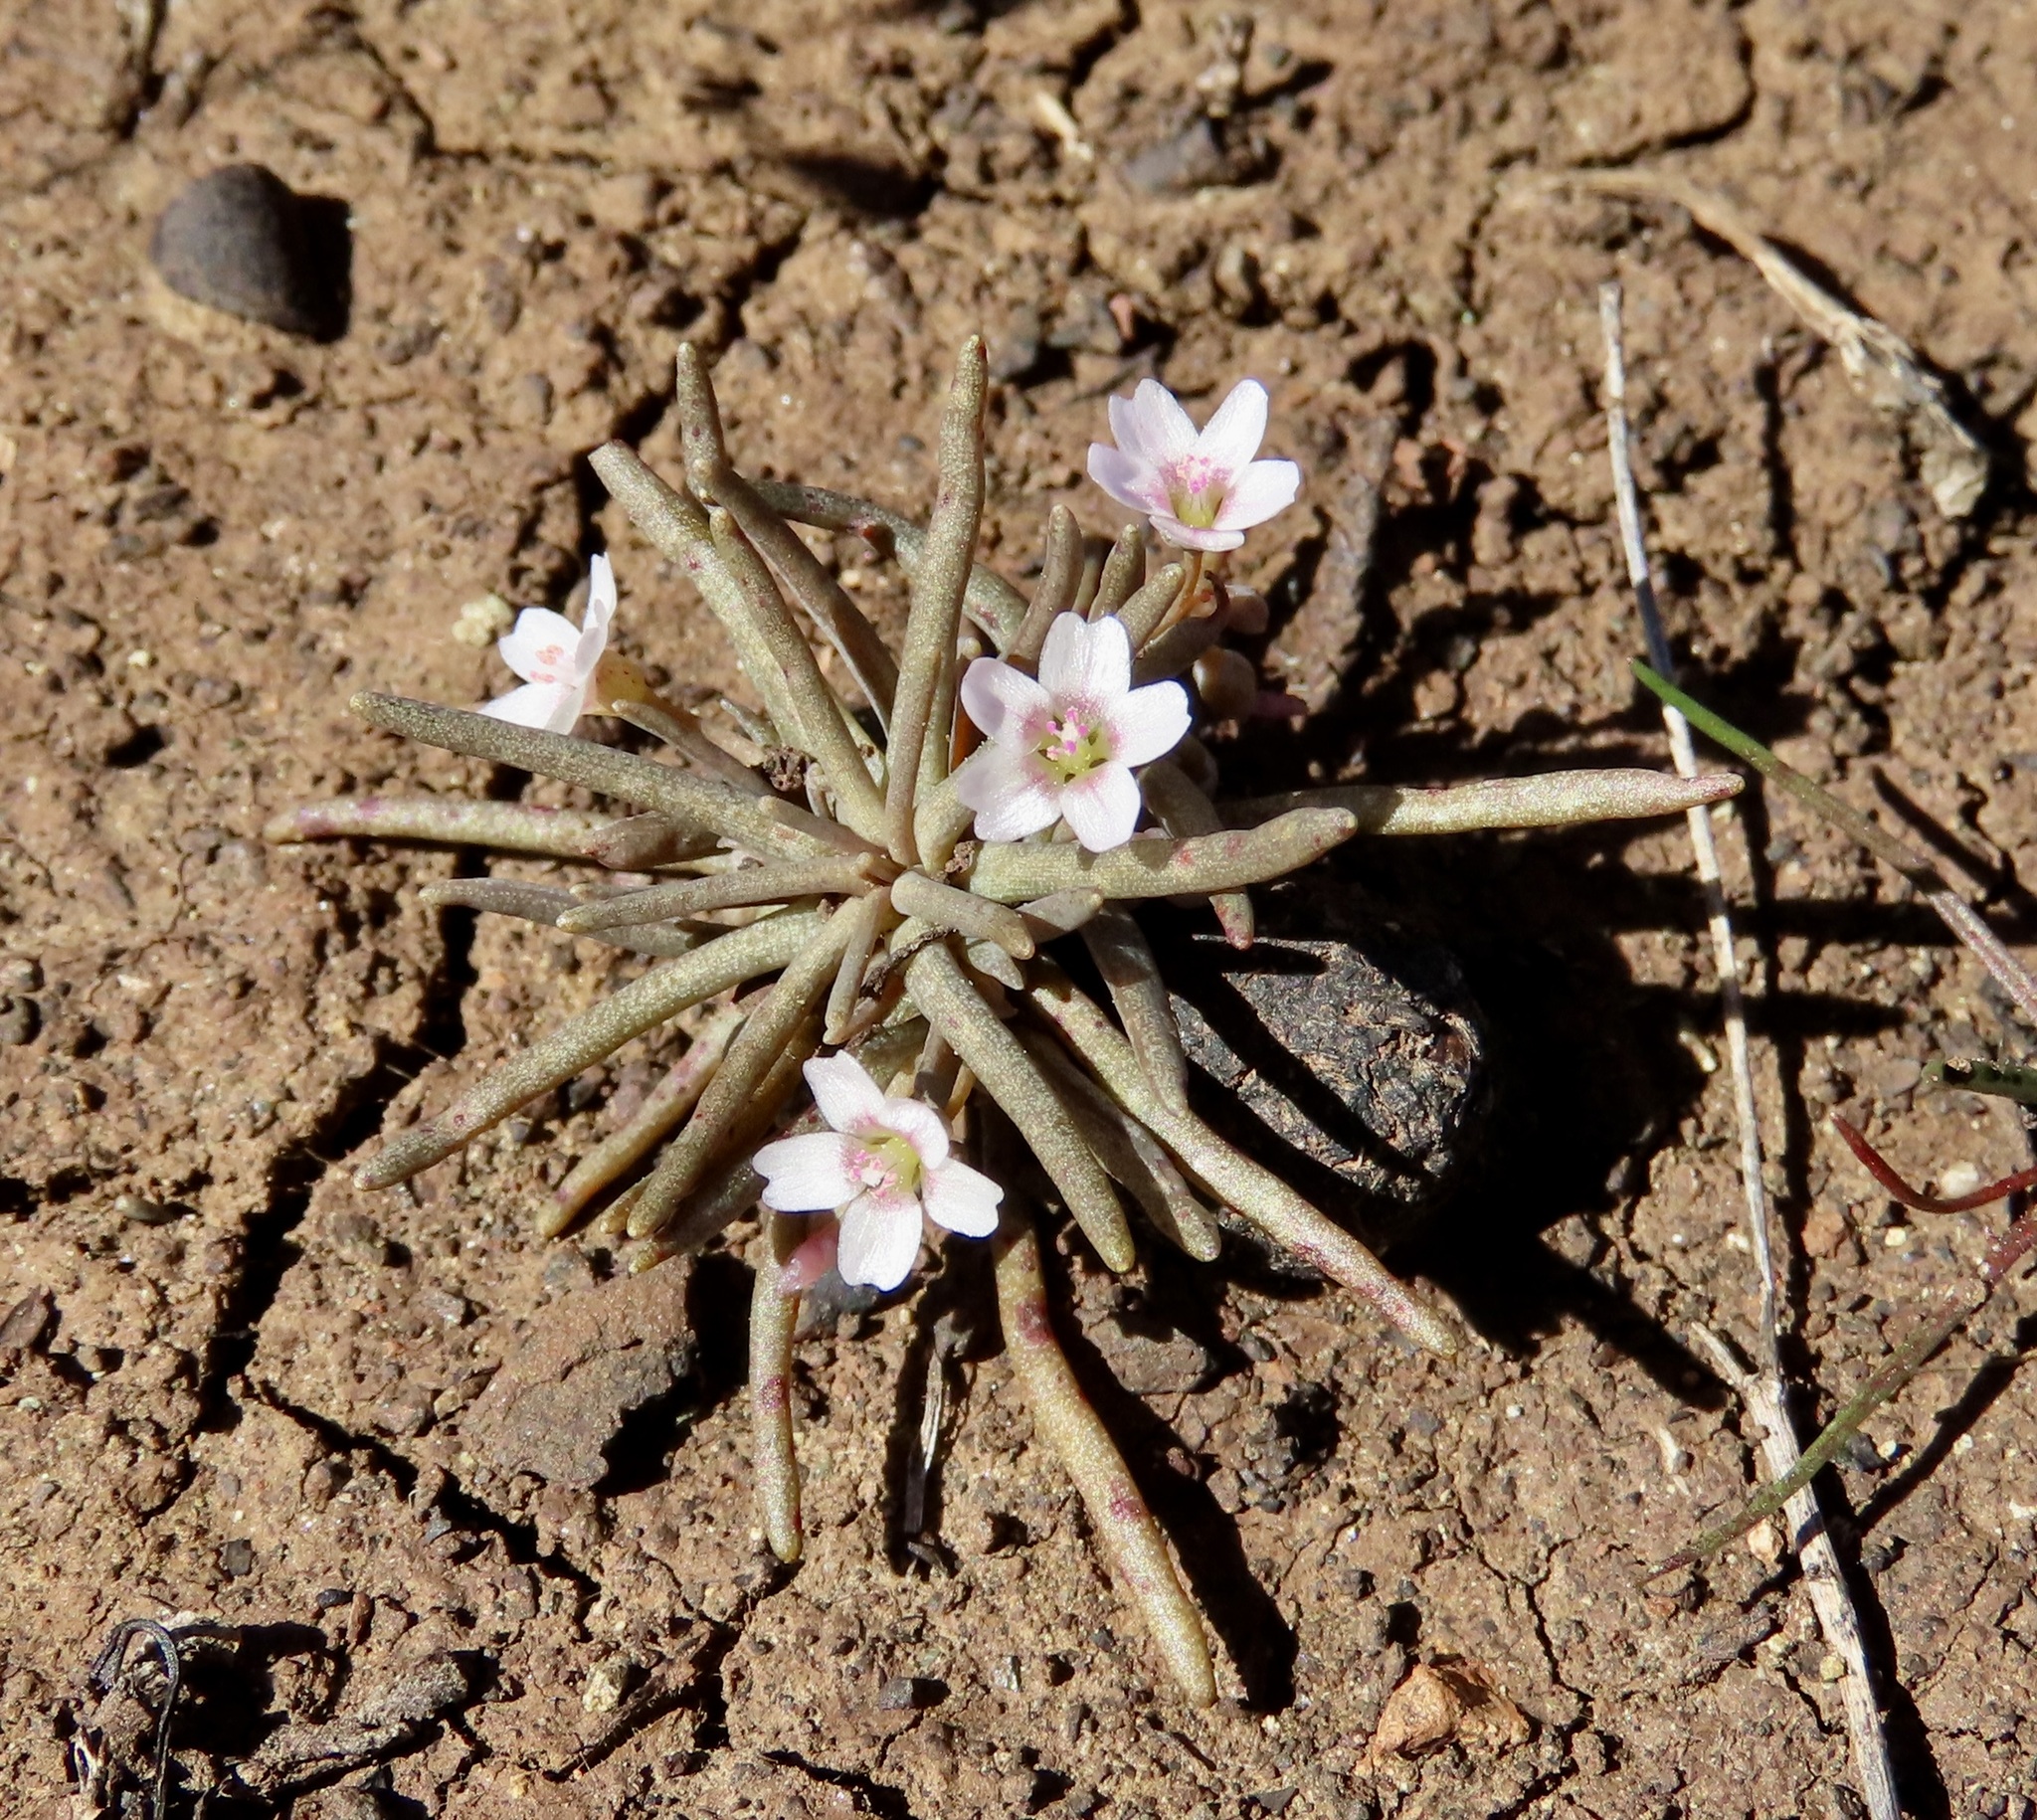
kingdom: Plantae
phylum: Tracheophyta
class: Magnoliopsida
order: Caryophyllales
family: Montiaceae
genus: Claytonia
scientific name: Claytonia exigua
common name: Pale spring beauty
